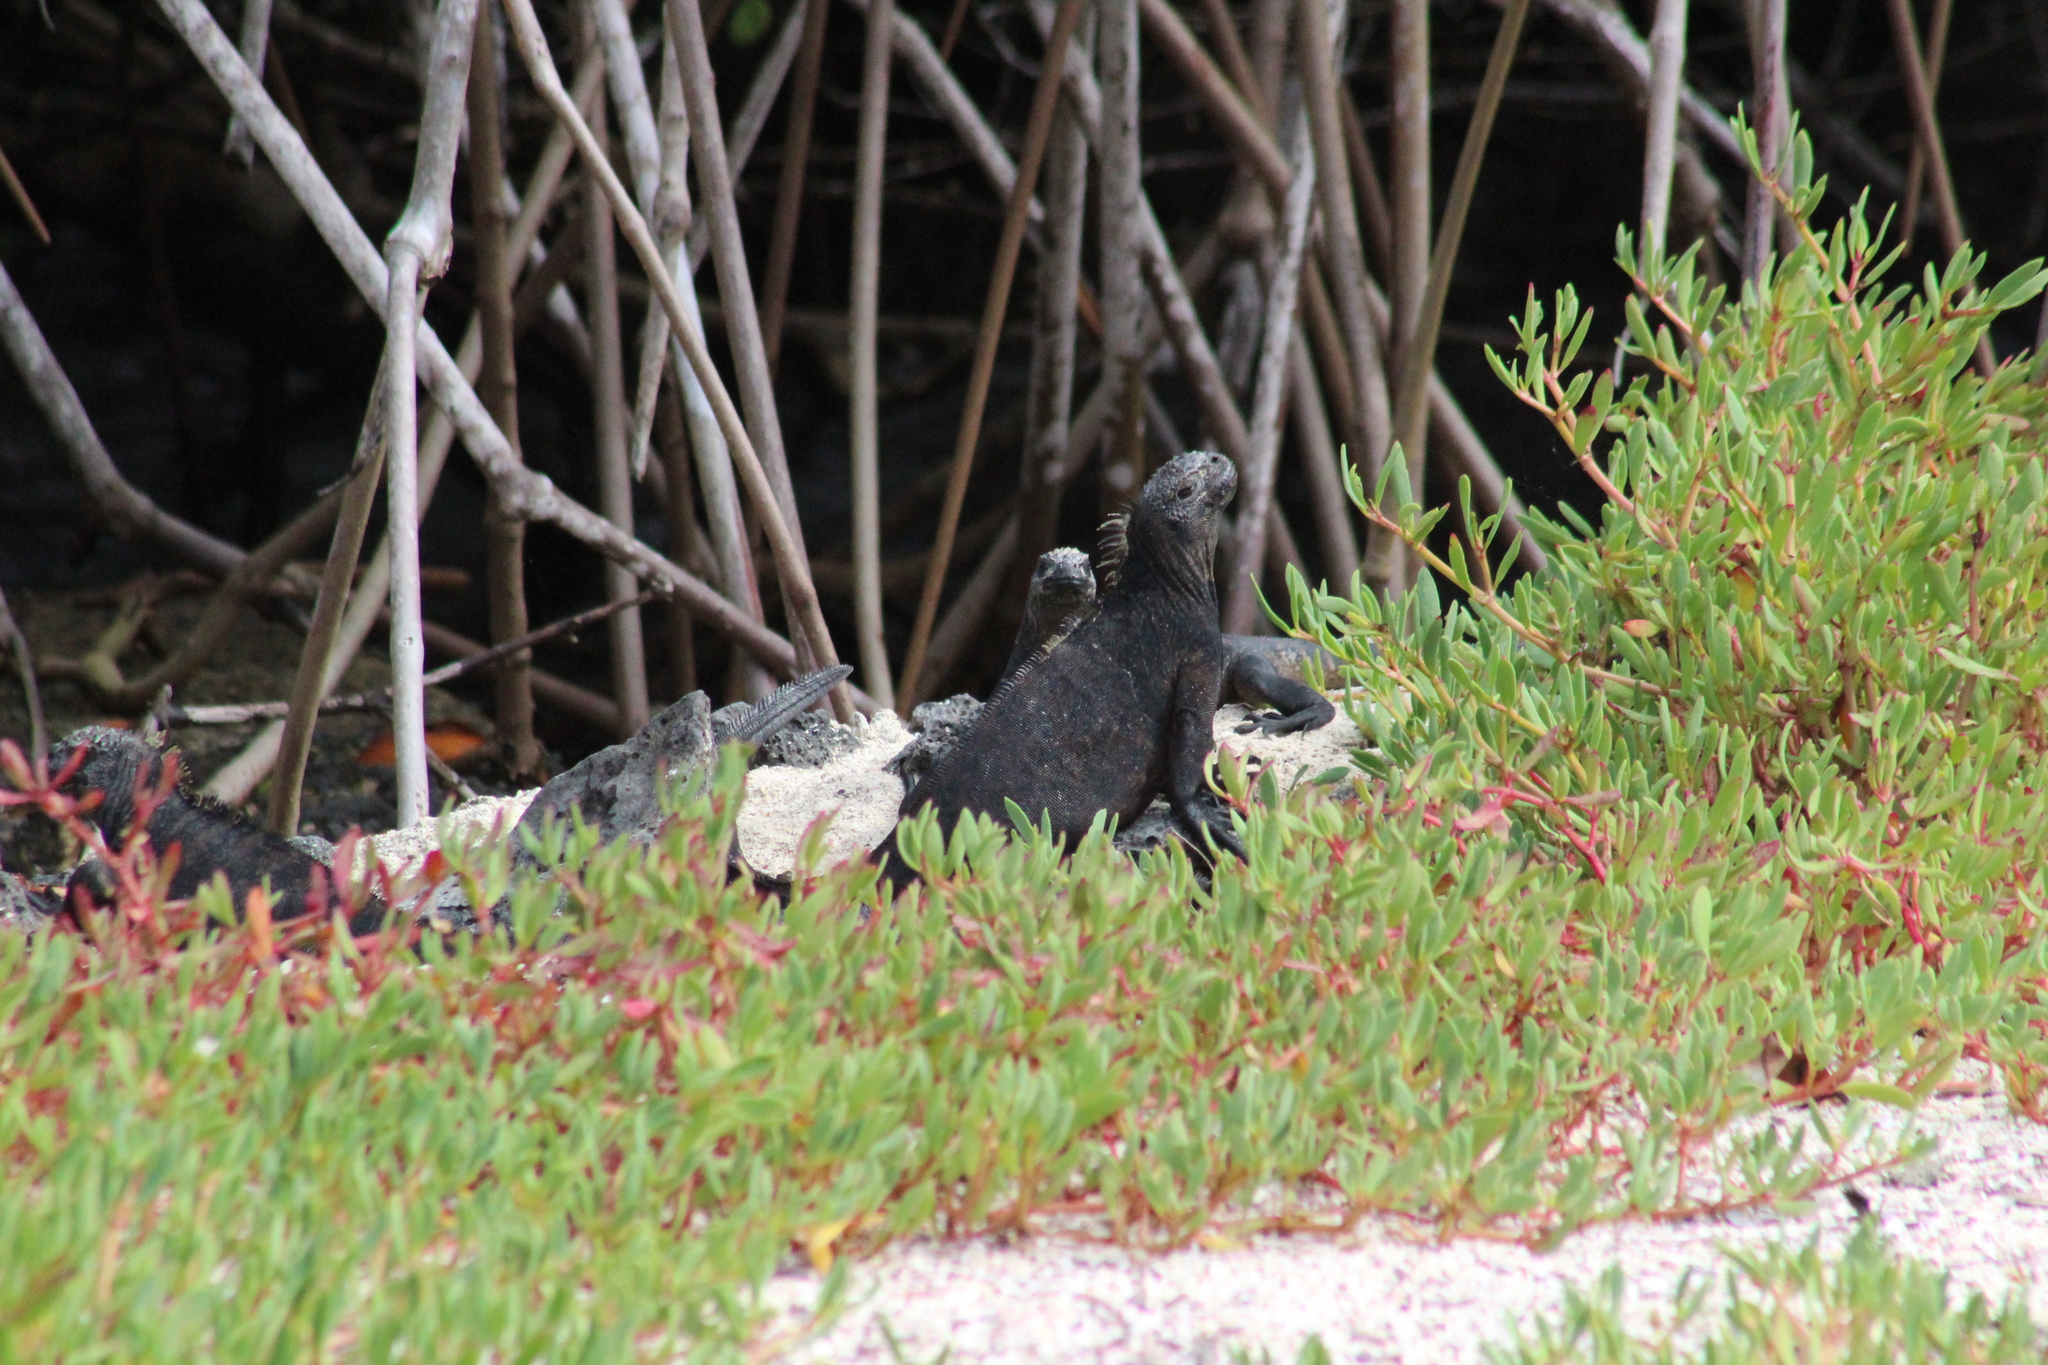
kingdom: Animalia
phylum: Chordata
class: Squamata
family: Iguanidae
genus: Amblyrhynchus
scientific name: Amblyrhynchus cristatus
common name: Marine iguana
